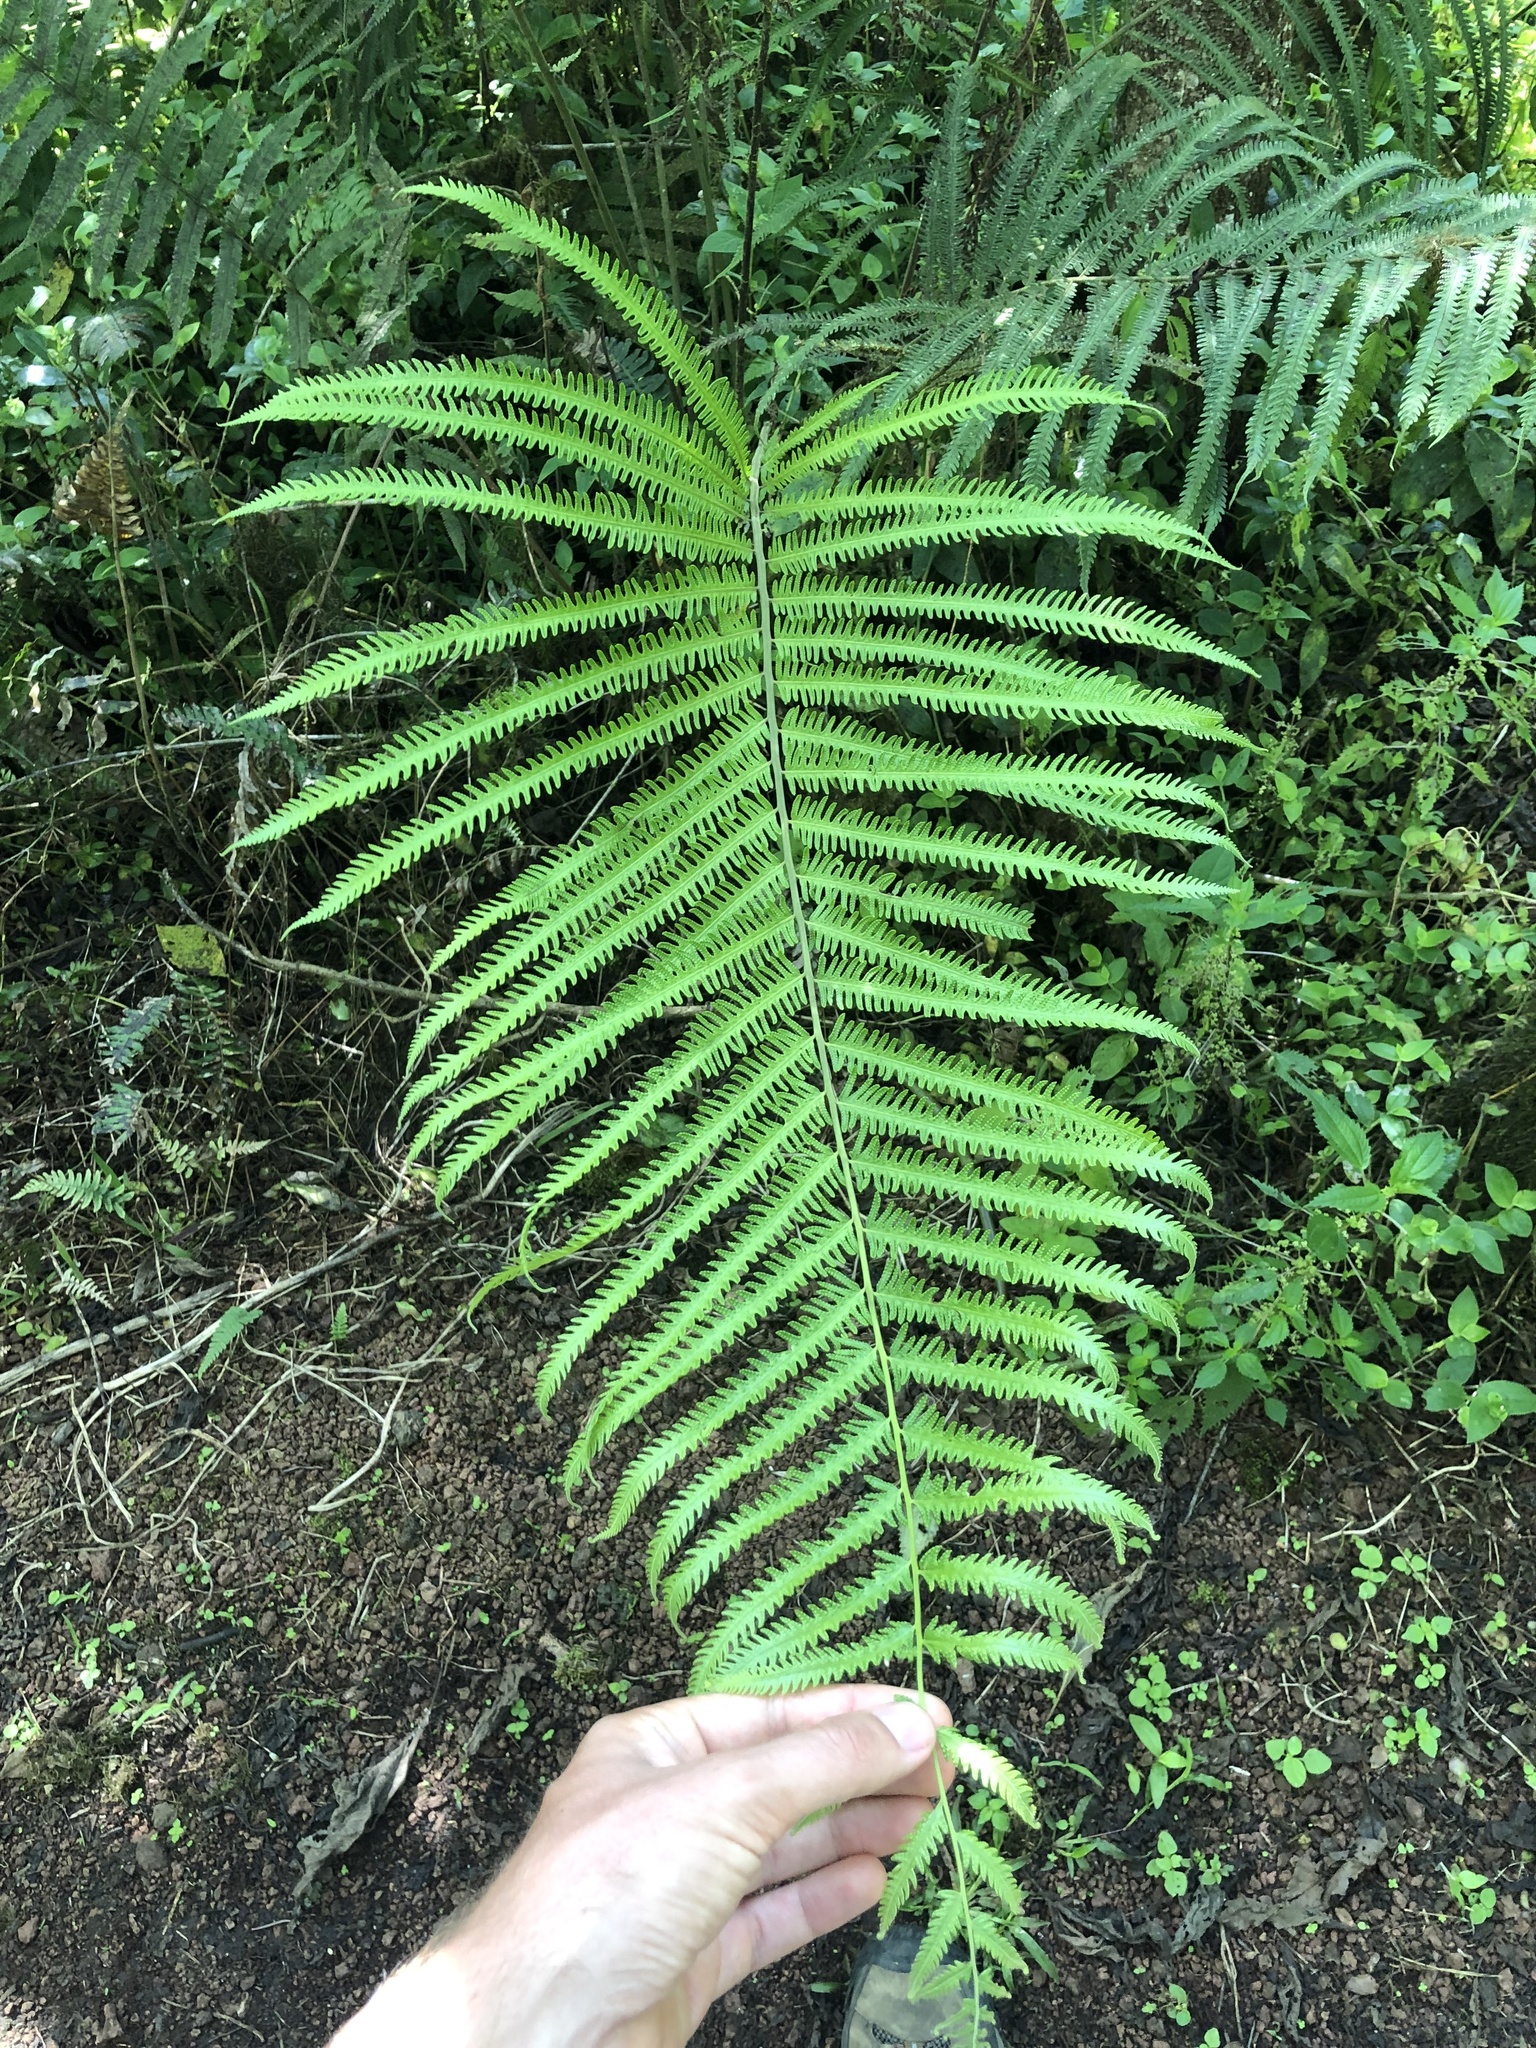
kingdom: Plantae
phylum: Tracheophyta
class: Polypodiopsida
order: Polypodiales
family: Thelypteridaceae
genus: Amblovenatum
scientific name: Amblovenatum opulentum
